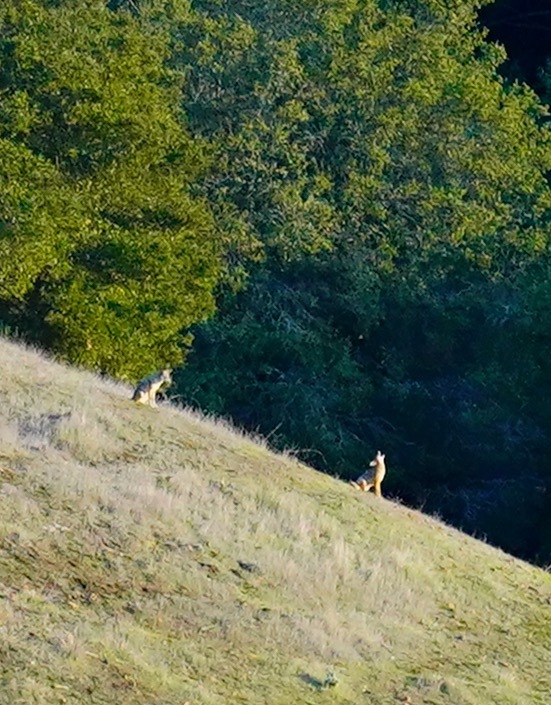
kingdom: Animalia
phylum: Chordata
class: Mammalia
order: Carnivora
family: Canidae
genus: Canis
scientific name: Canis latrans
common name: Coyote
